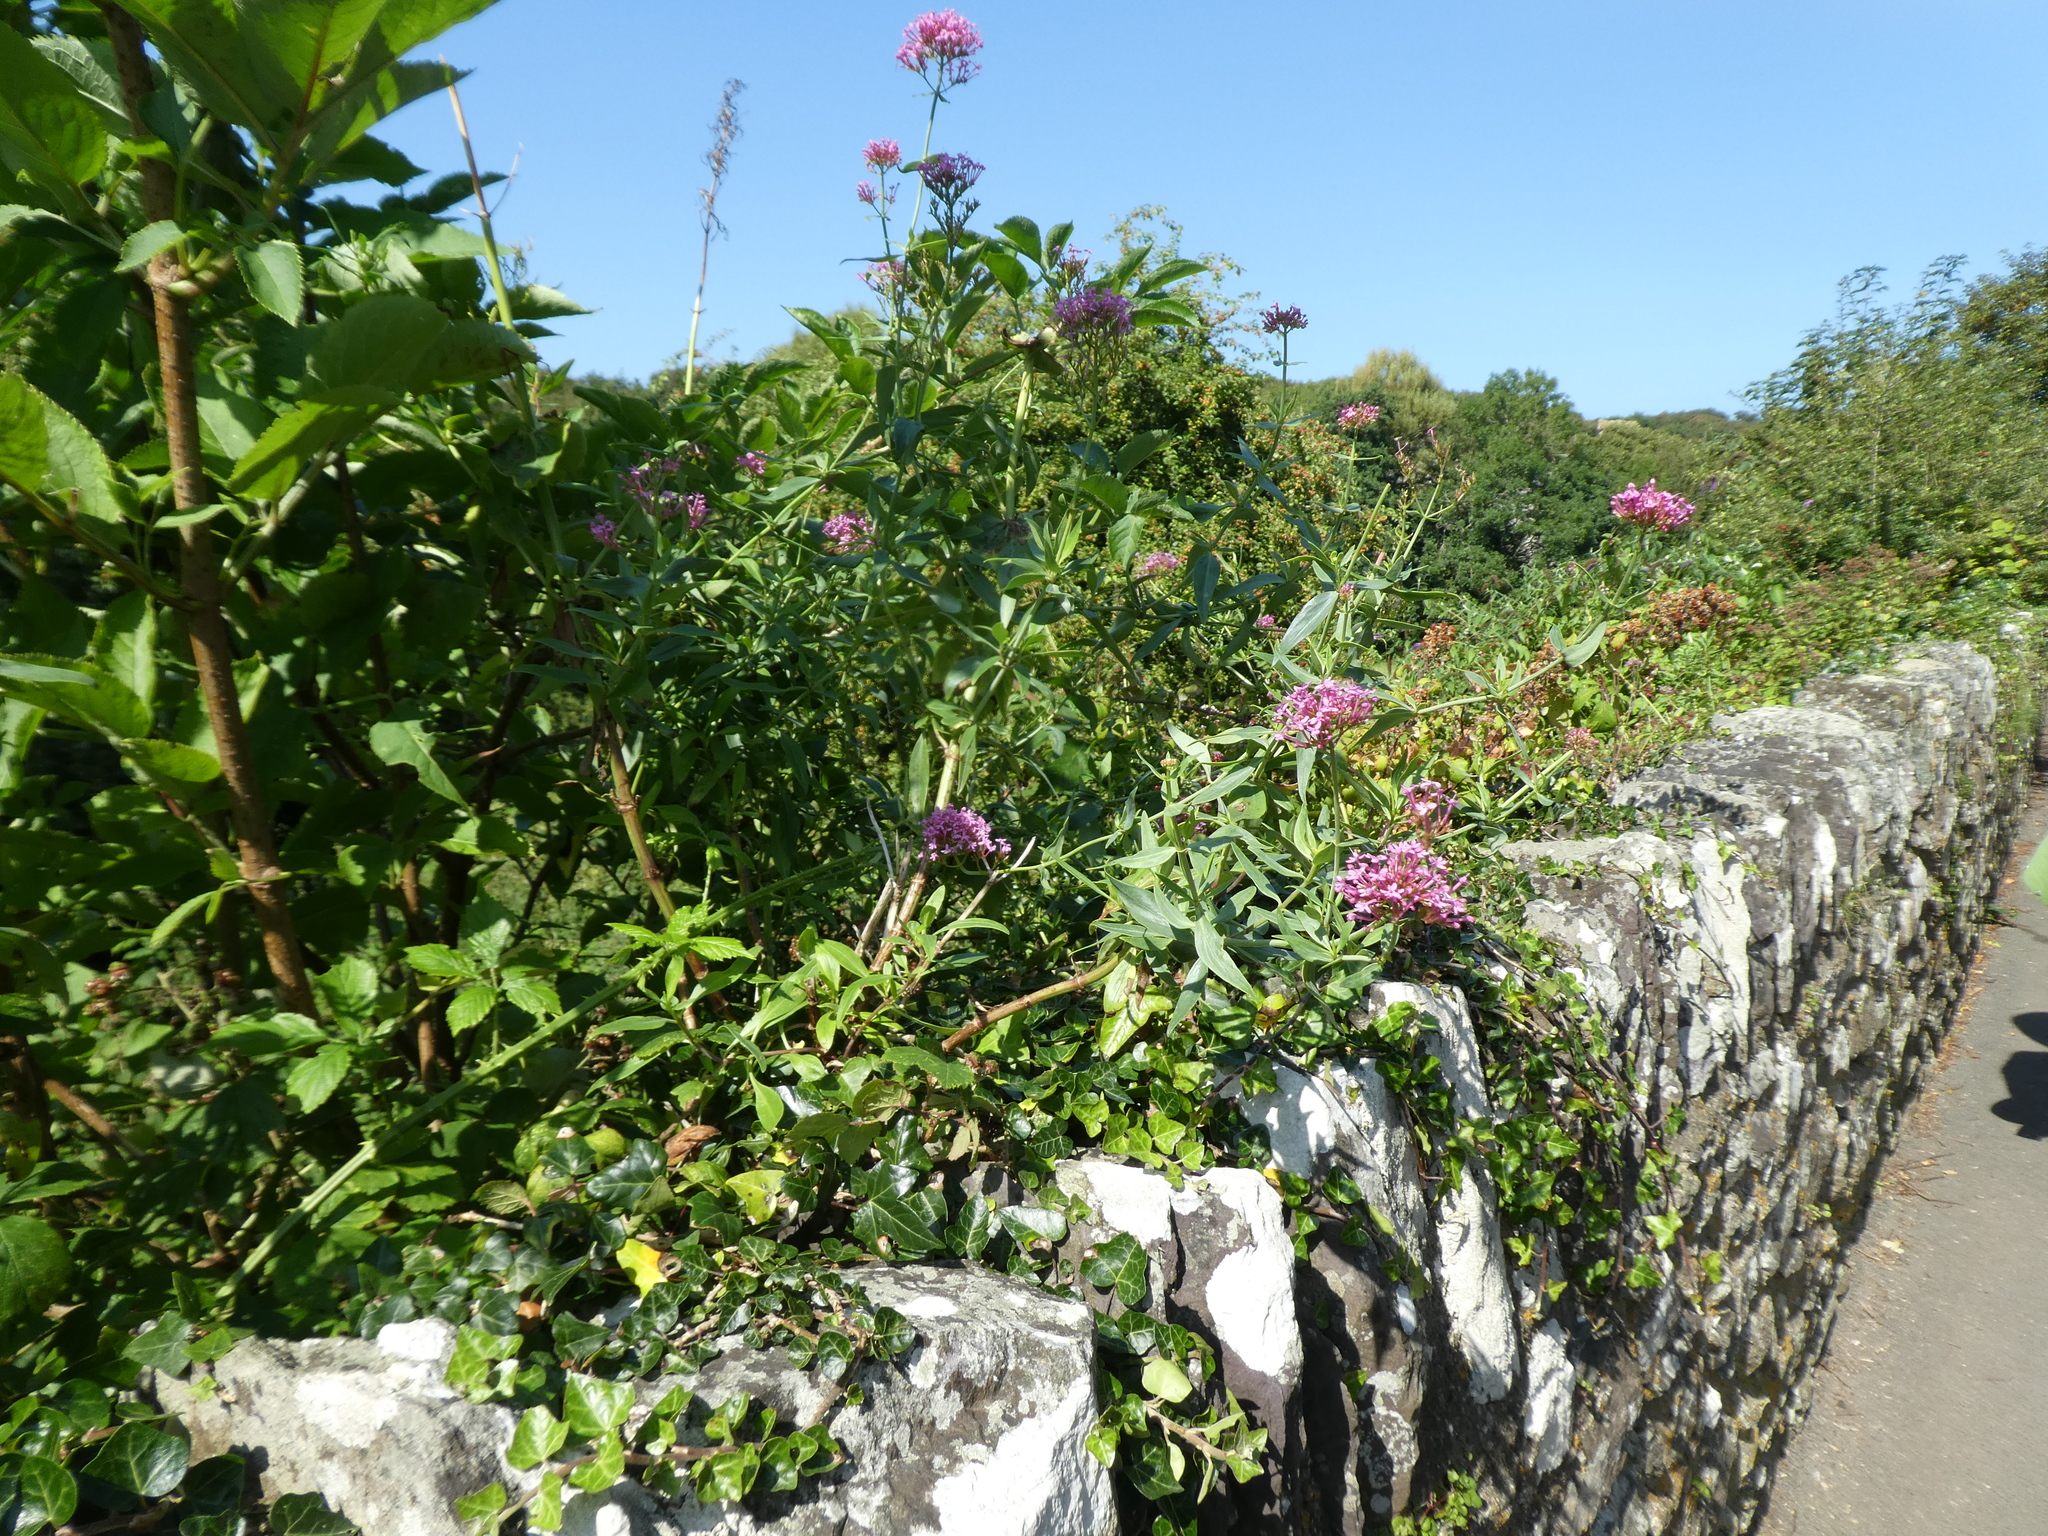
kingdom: Plantae
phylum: Tracheophyta
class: Magnoliopsida
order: Dipsacales
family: Caprifoliaceae
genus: Centranthus
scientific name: Centranthus ruber
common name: Red valerian
